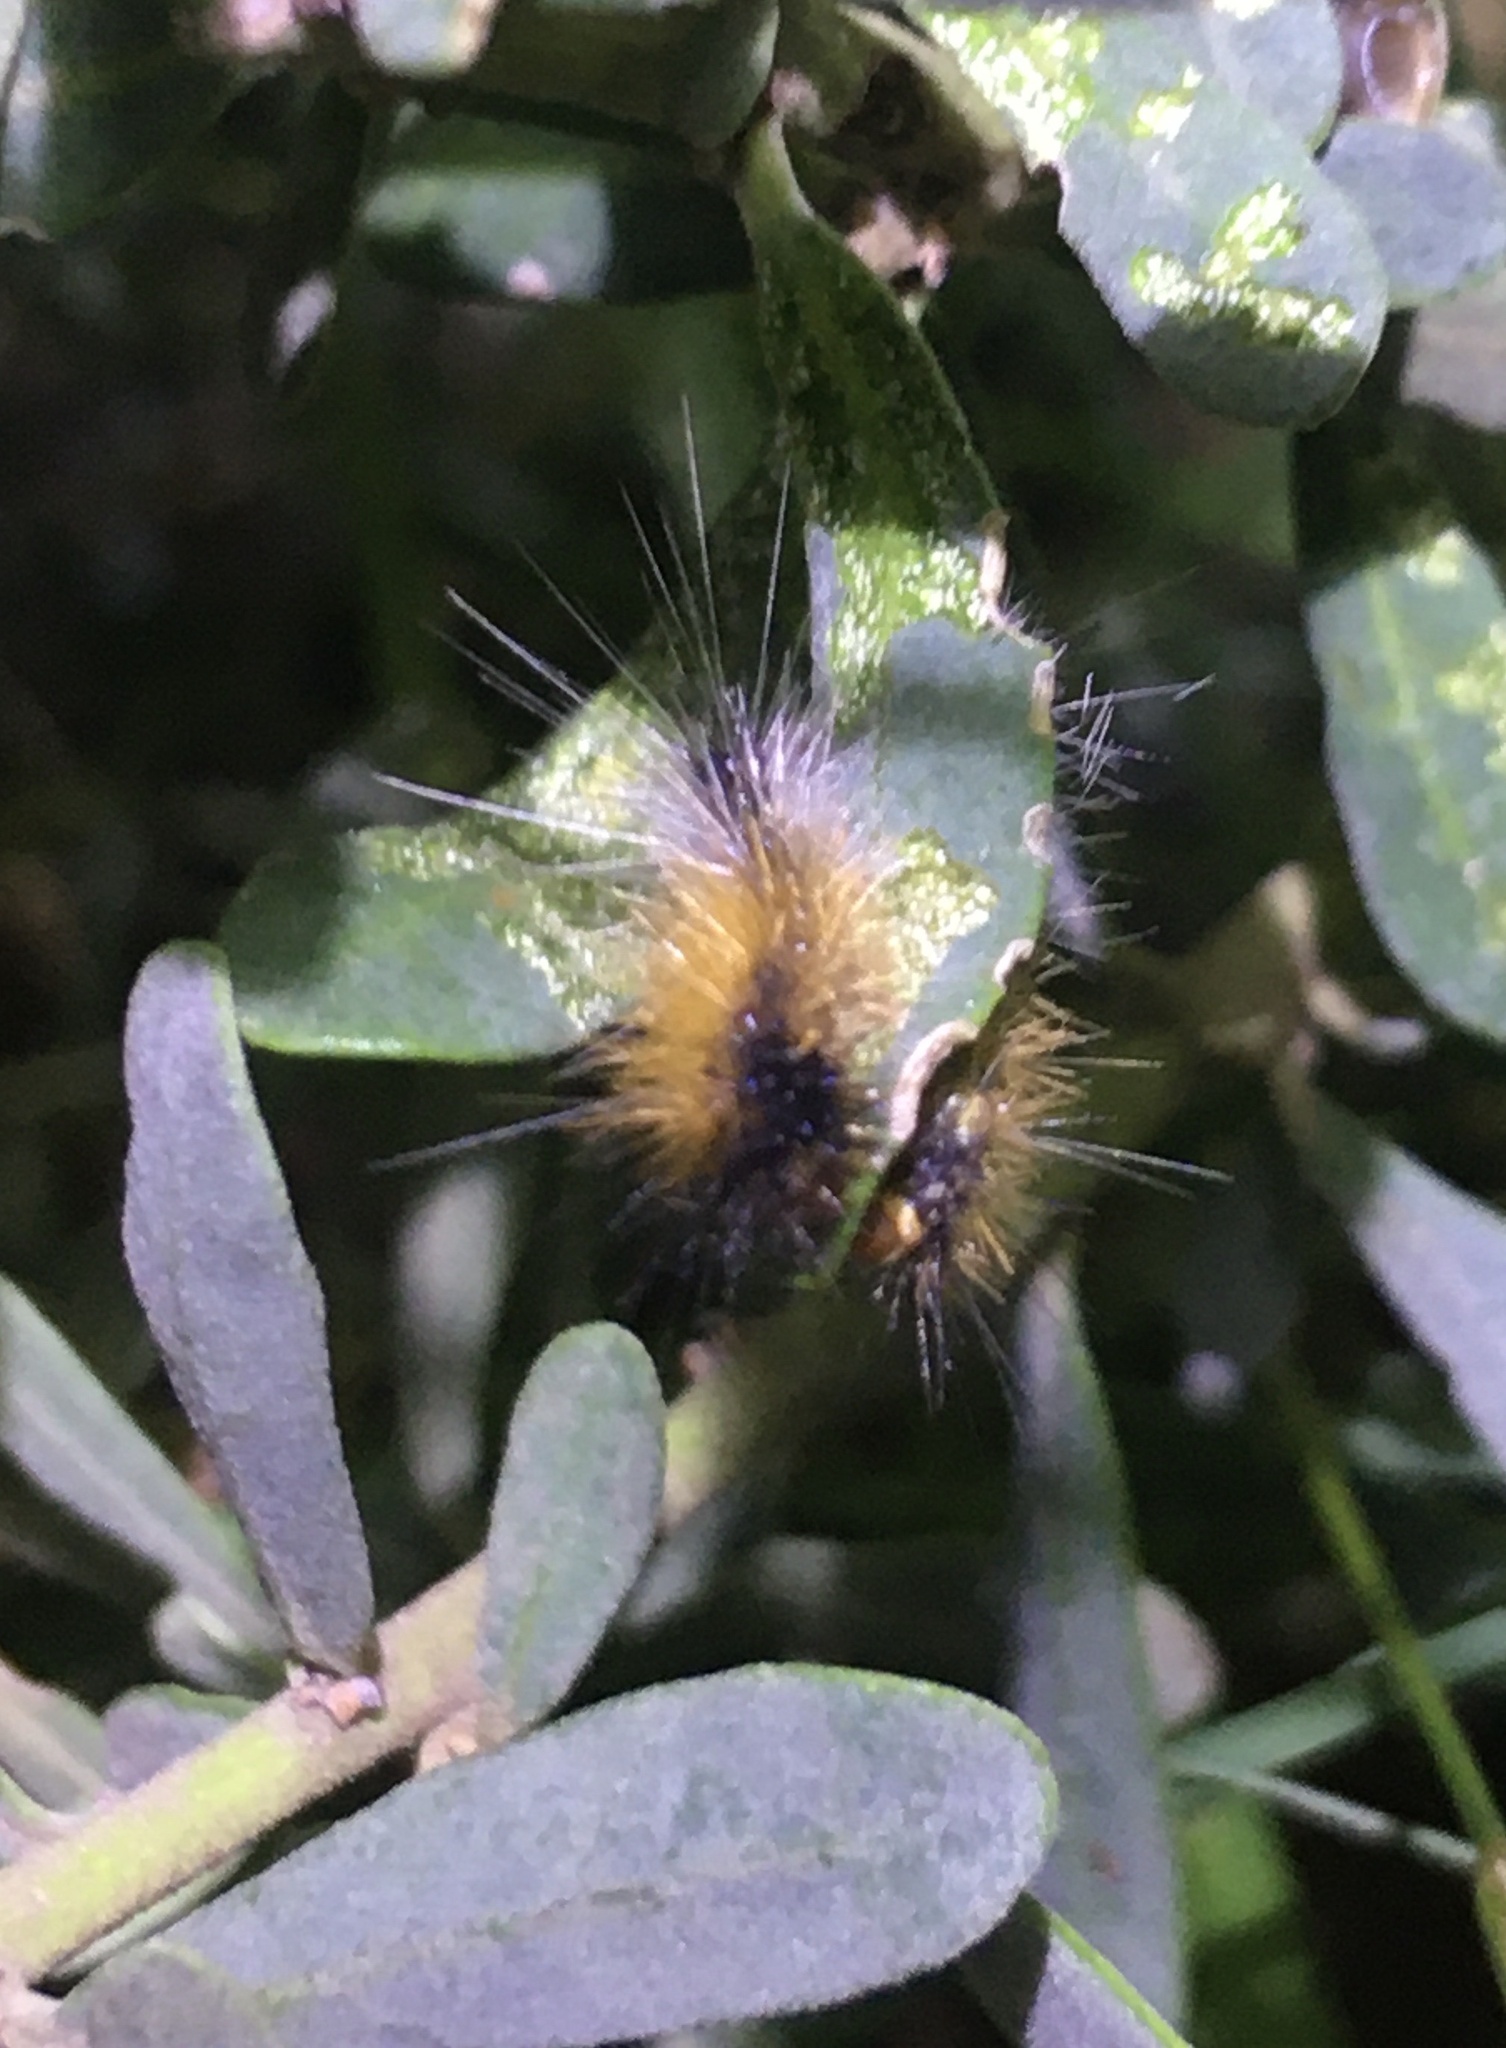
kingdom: Animalia
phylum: Arthropoda
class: Insecta
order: Lepidoptera
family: Erebidae
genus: Rhodogastria
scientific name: Rhodogastria amasis
